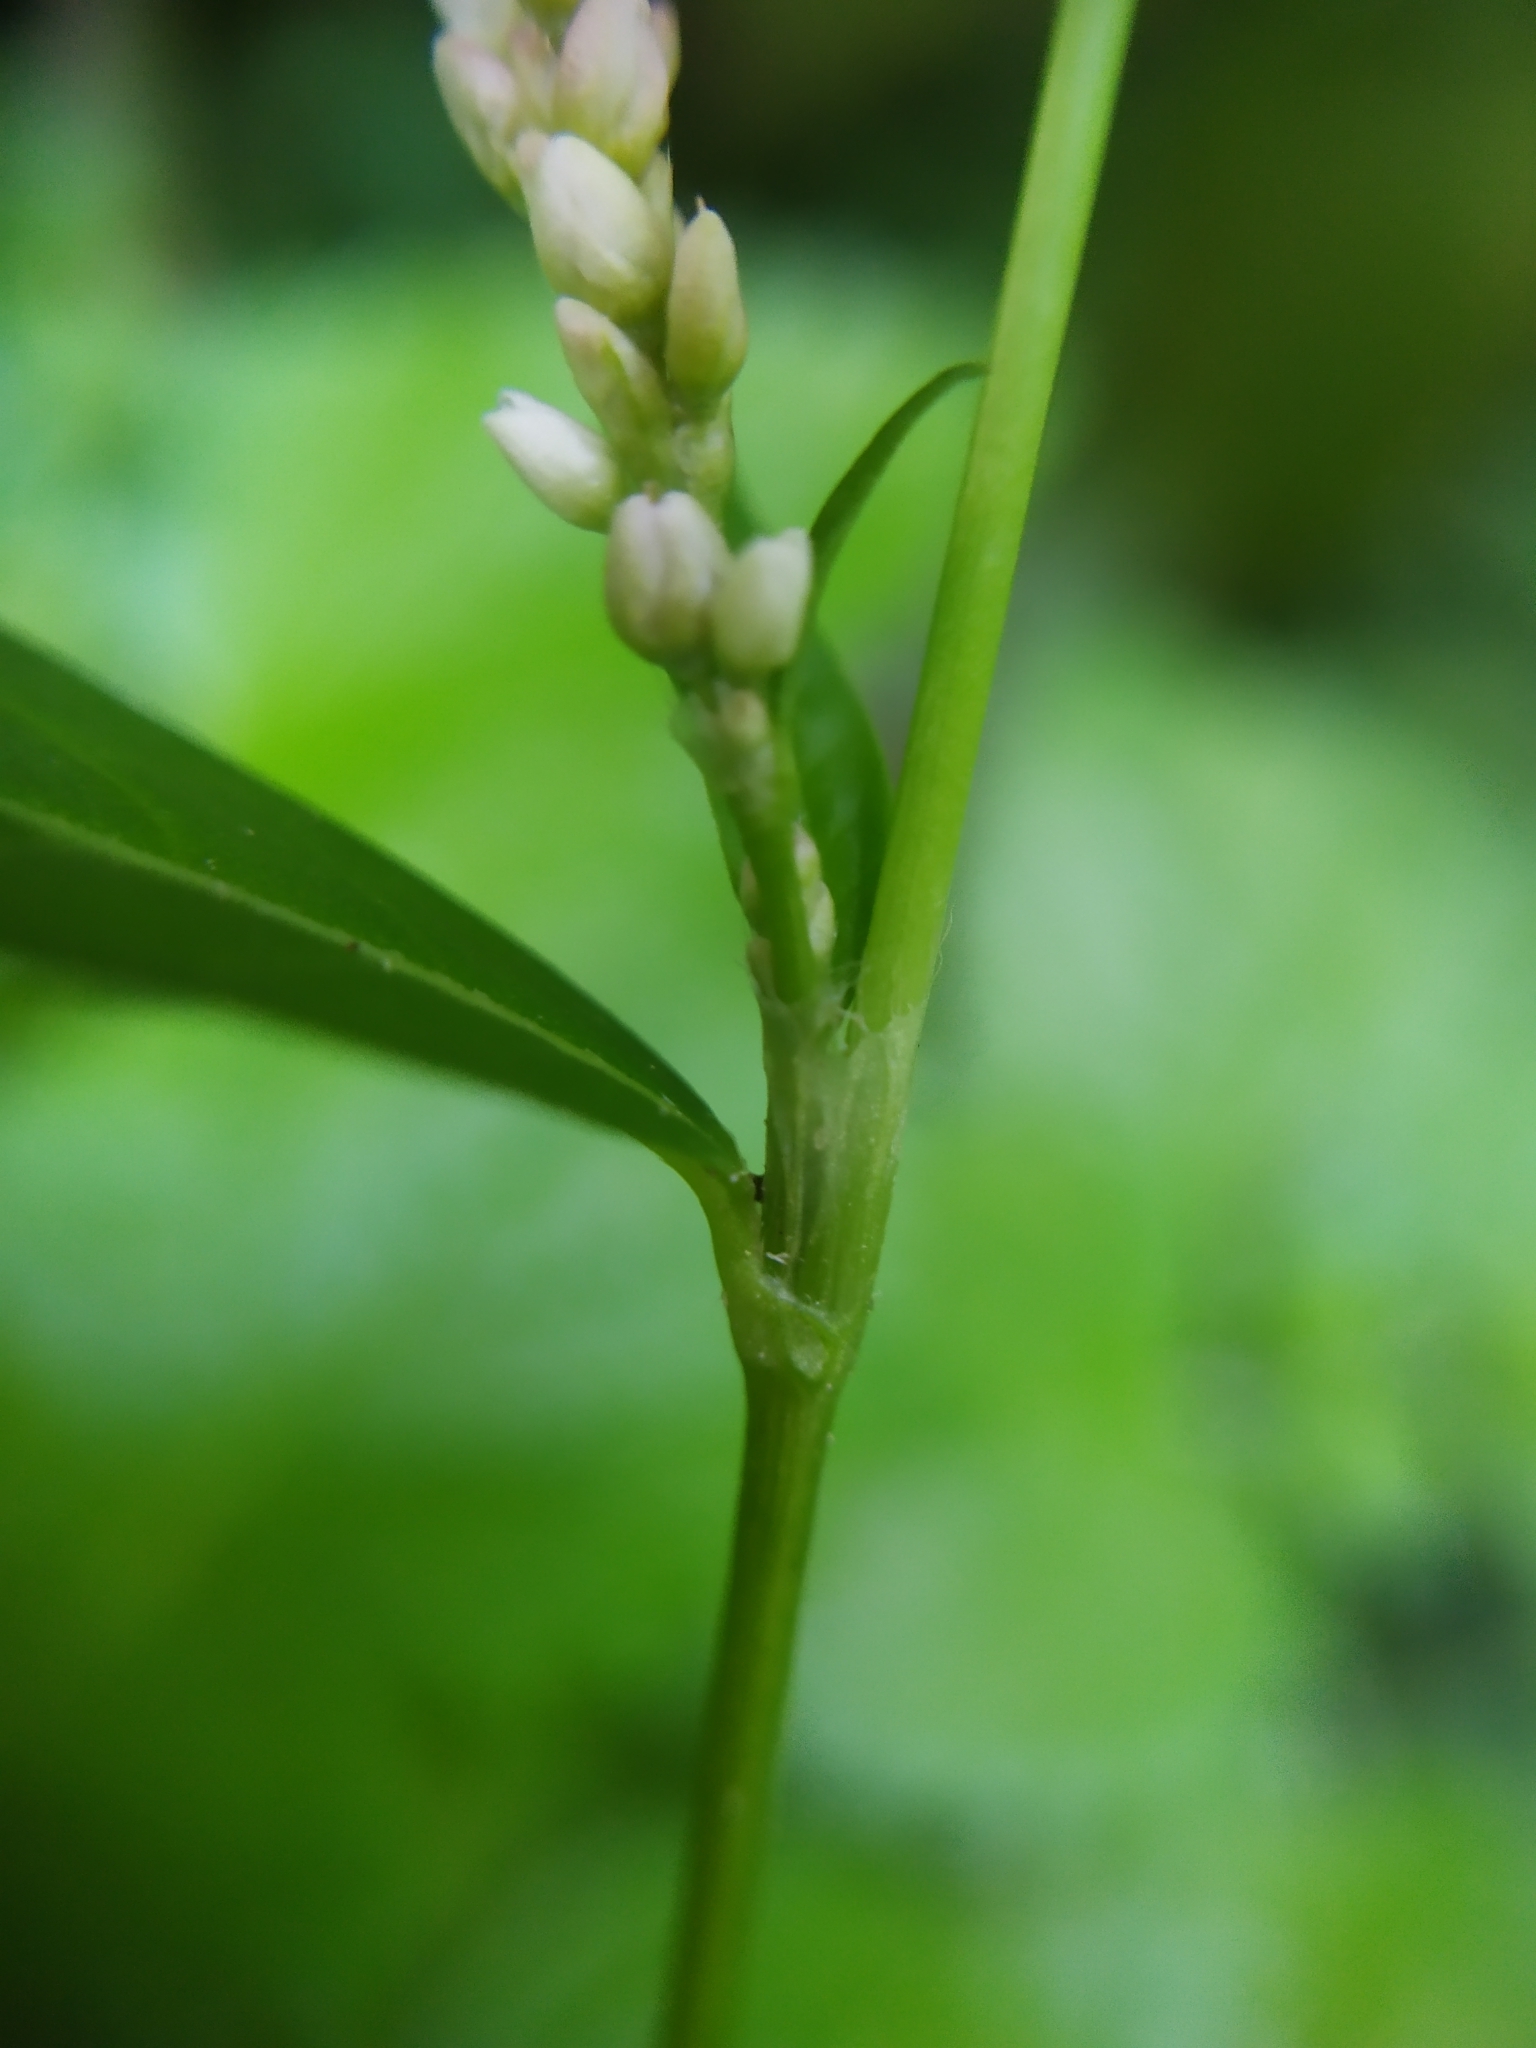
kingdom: Plantae
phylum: Tracheophyta
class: Magnoliopsida
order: Caryophyllales
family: Polygonaceae
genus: Persicaria
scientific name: Persicaria maculosa
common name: Redshank
